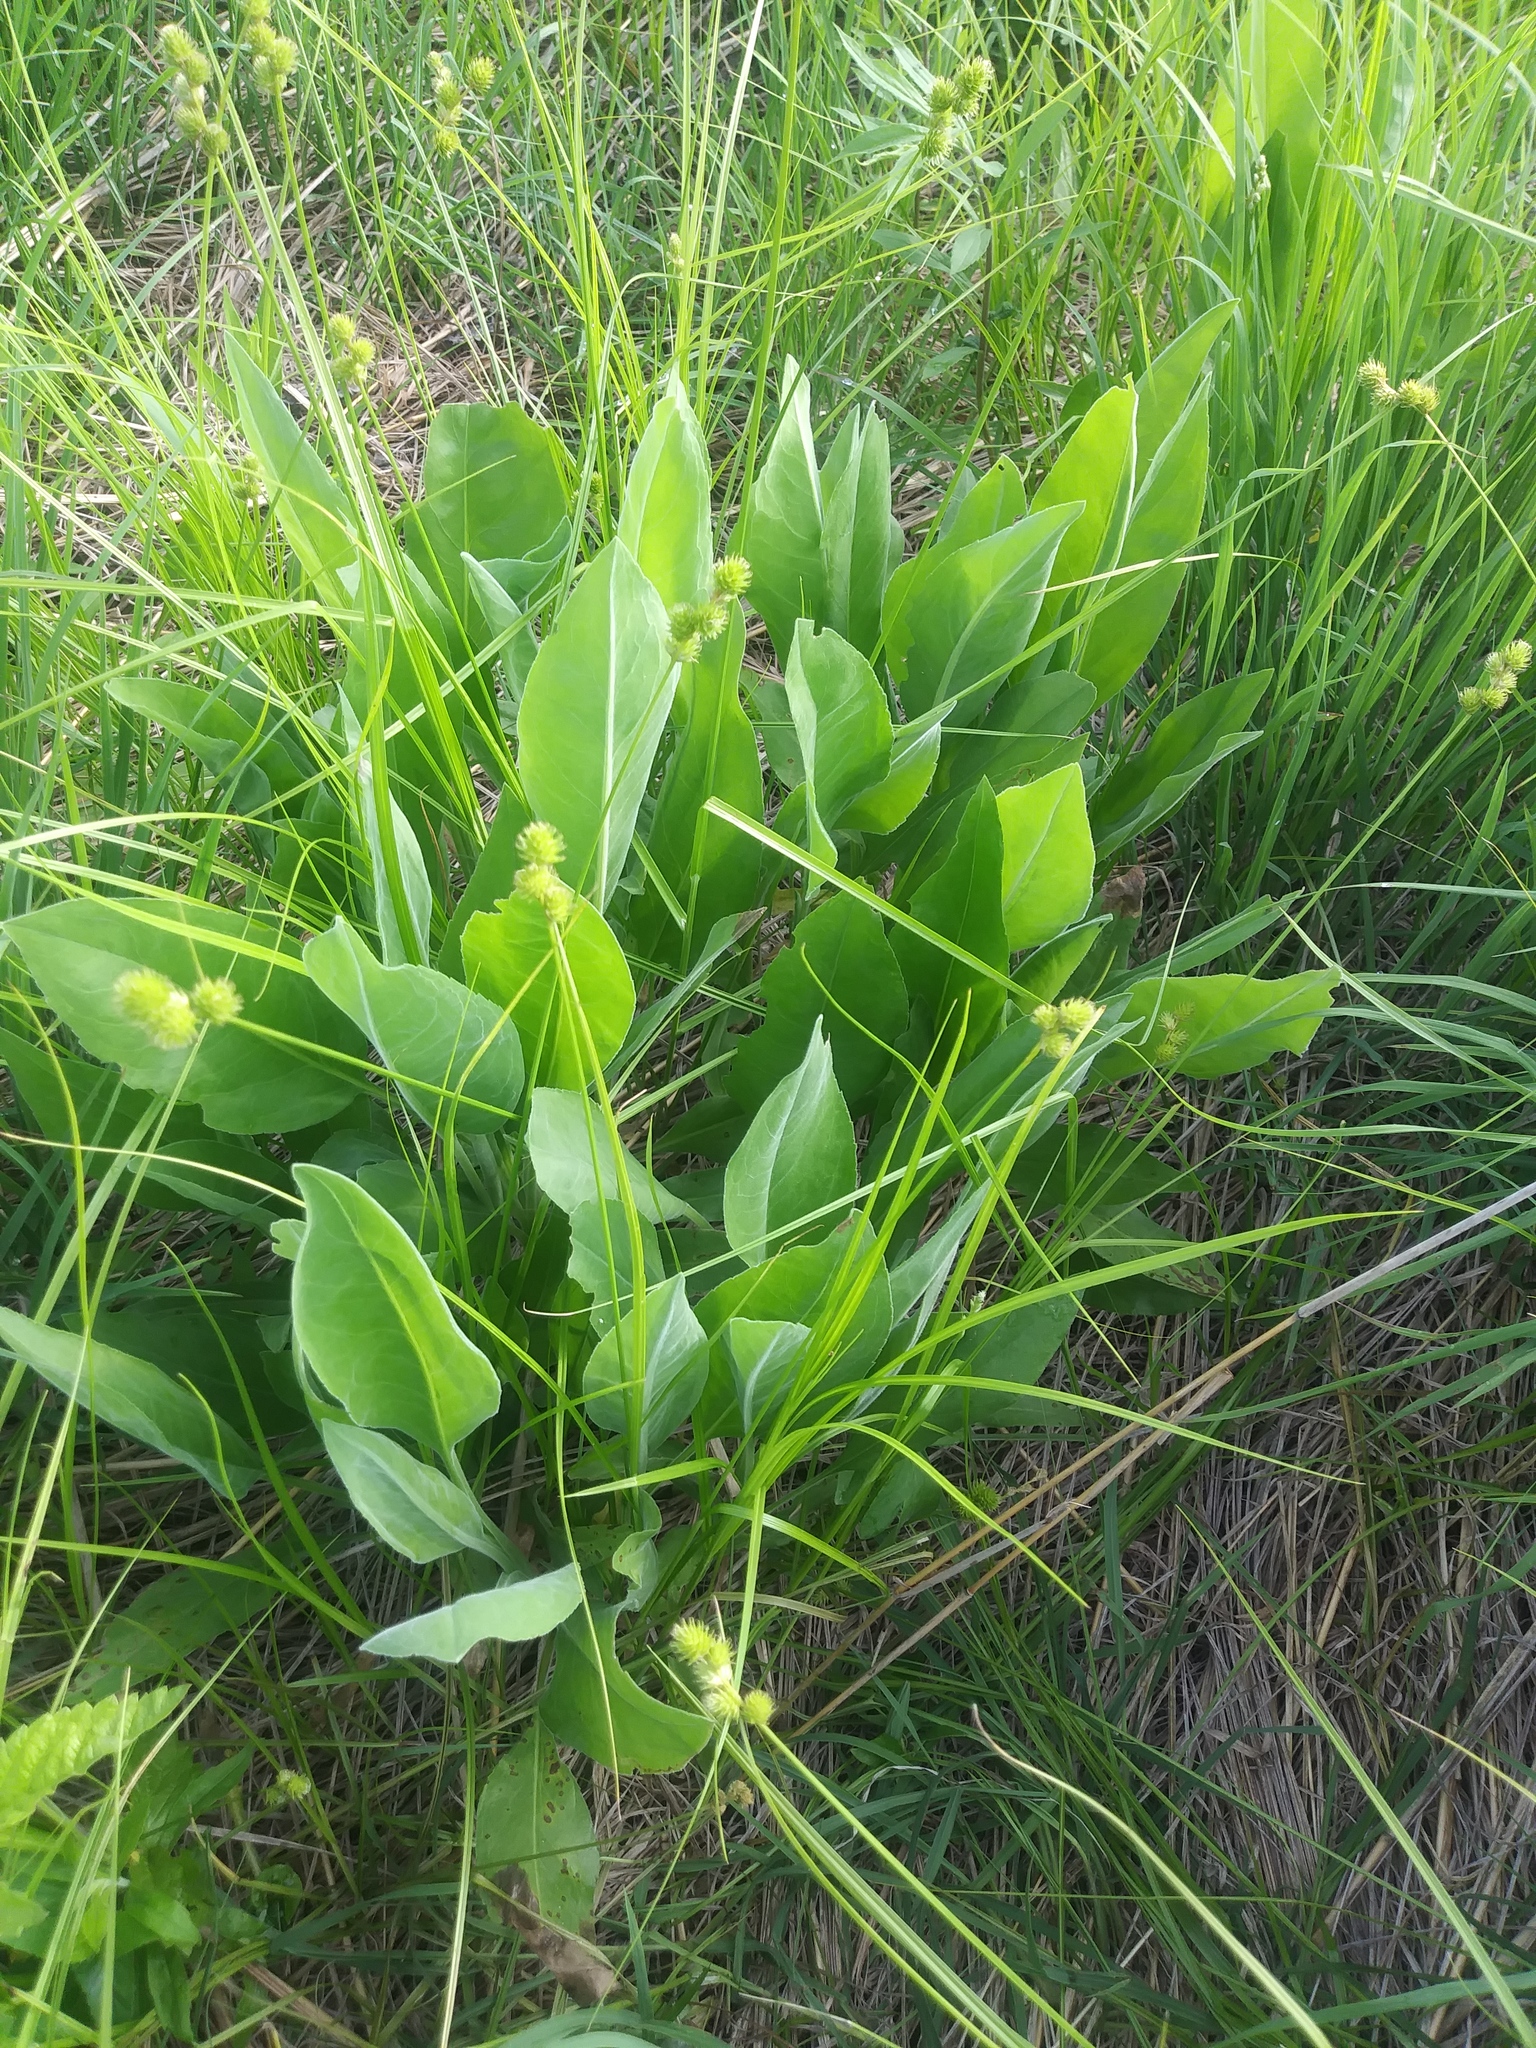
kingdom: Plantae
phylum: Tracheophyta
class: Magnoliopsida
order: Asterales
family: Asteraceae
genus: Solidago
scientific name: Solidago rigida
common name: Rigid goldenrod
